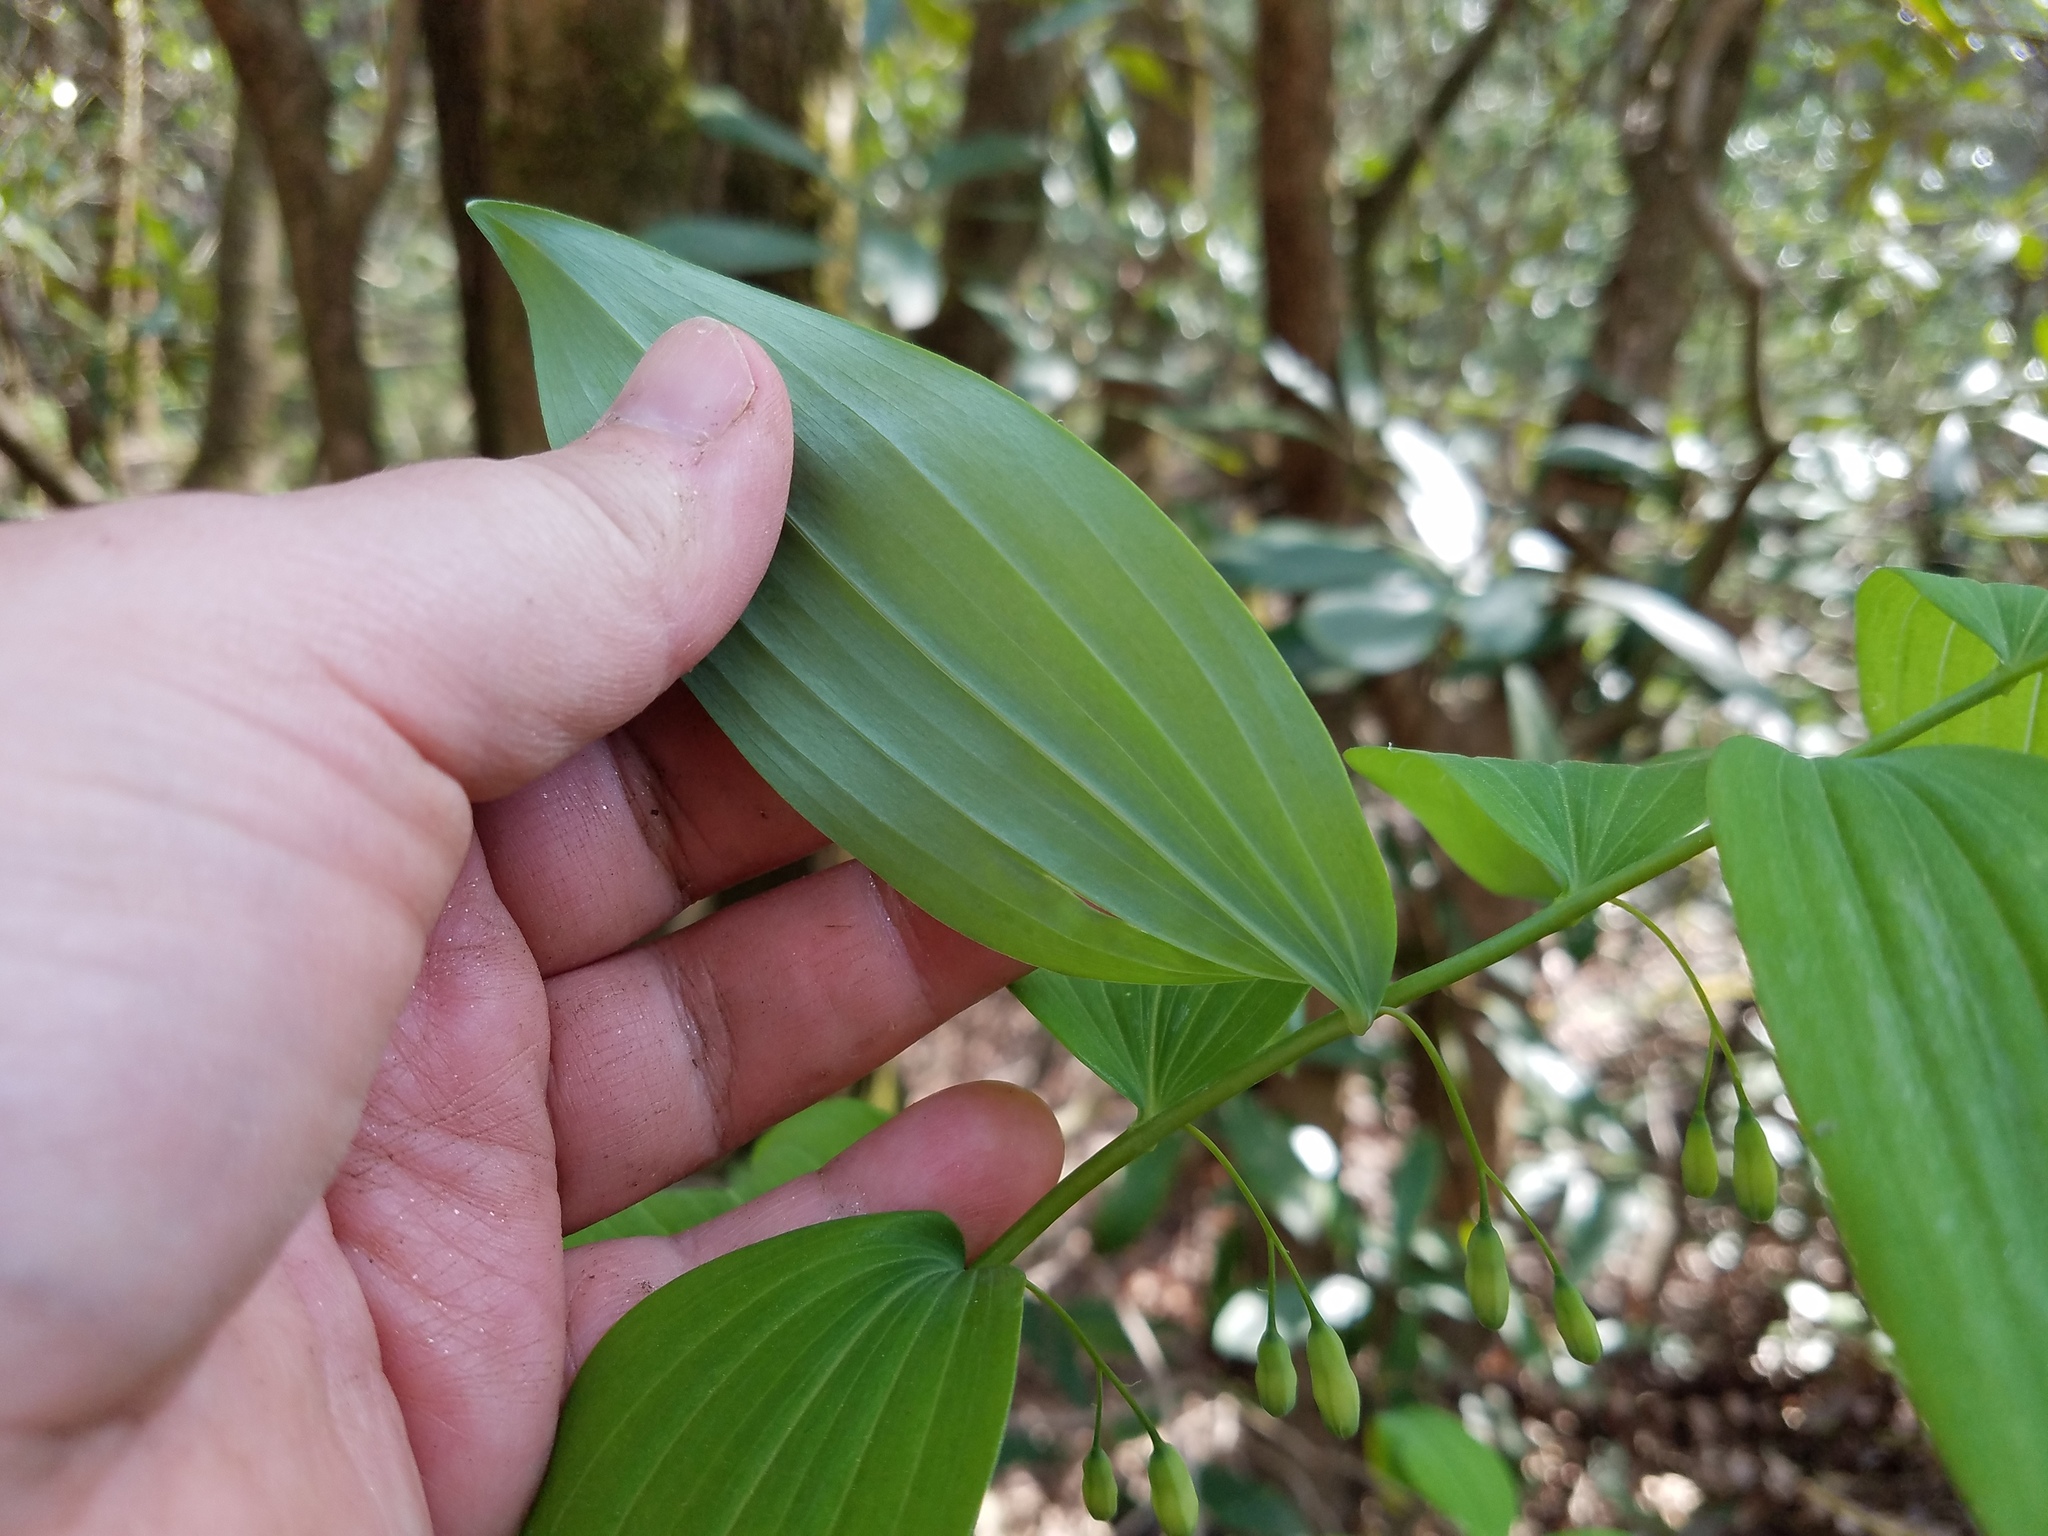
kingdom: Plantae
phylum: Tracheophyta
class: Liliopsida
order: Asparagales
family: Asparagaceae
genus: Polygonatum
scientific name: Polygonatum biflorum
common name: American solomon's-seal
